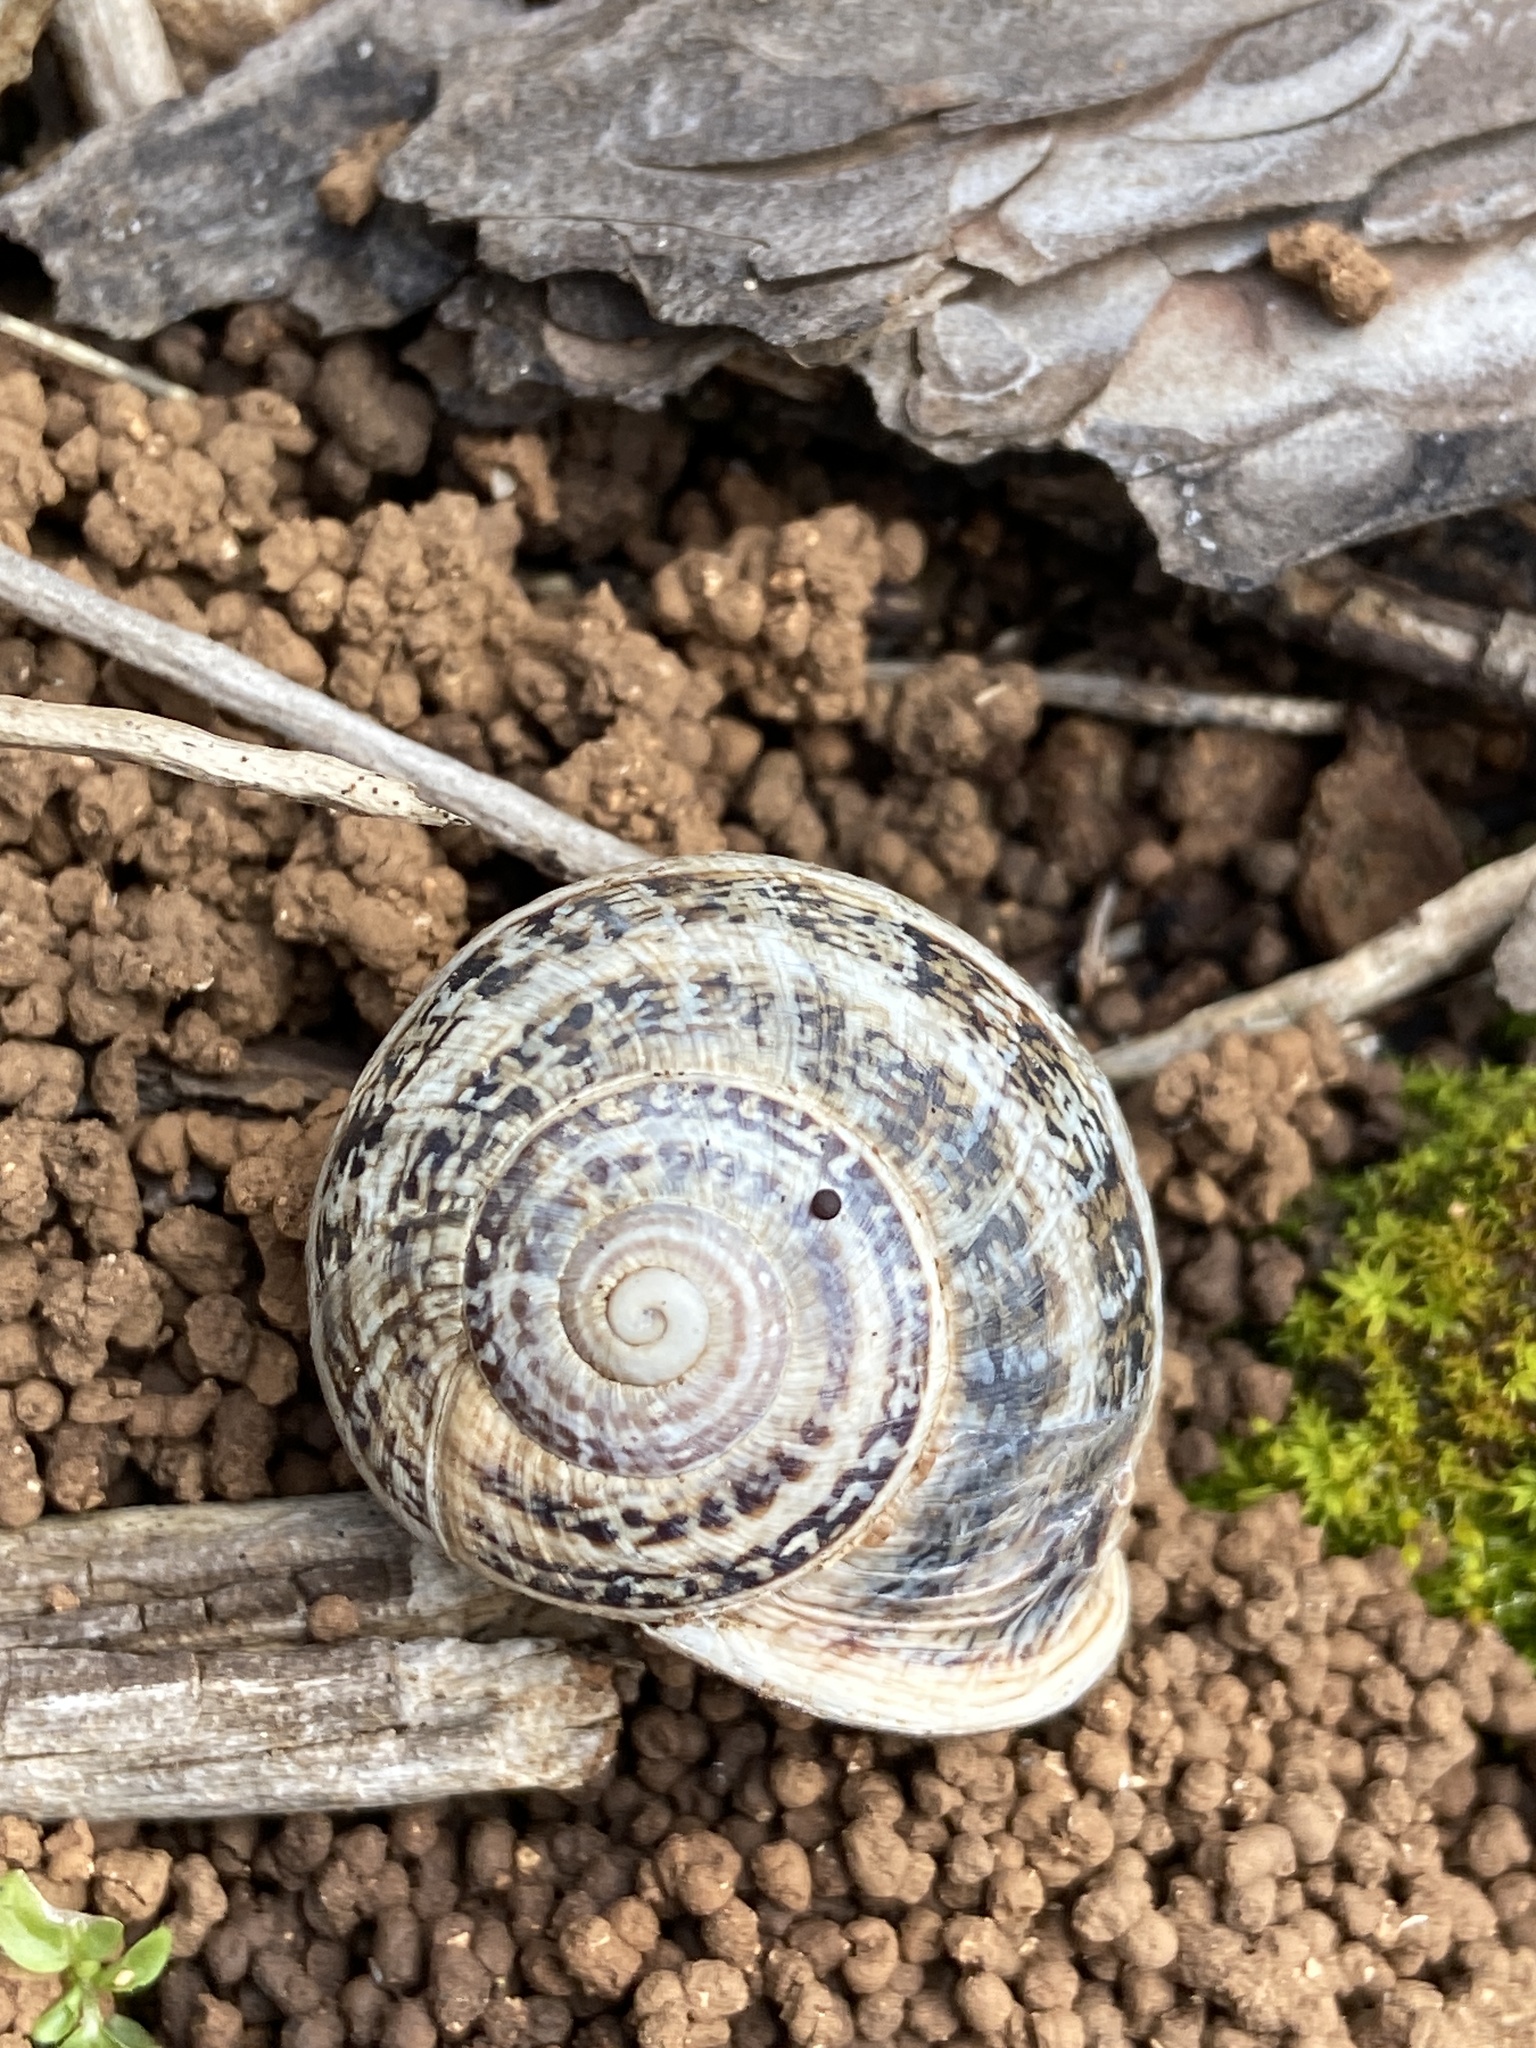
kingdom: Animalia
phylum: Mollusca
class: Gastropoda
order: Stylommatophora
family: Helicidae
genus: Otala
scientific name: Otala lactea
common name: Milk snail
